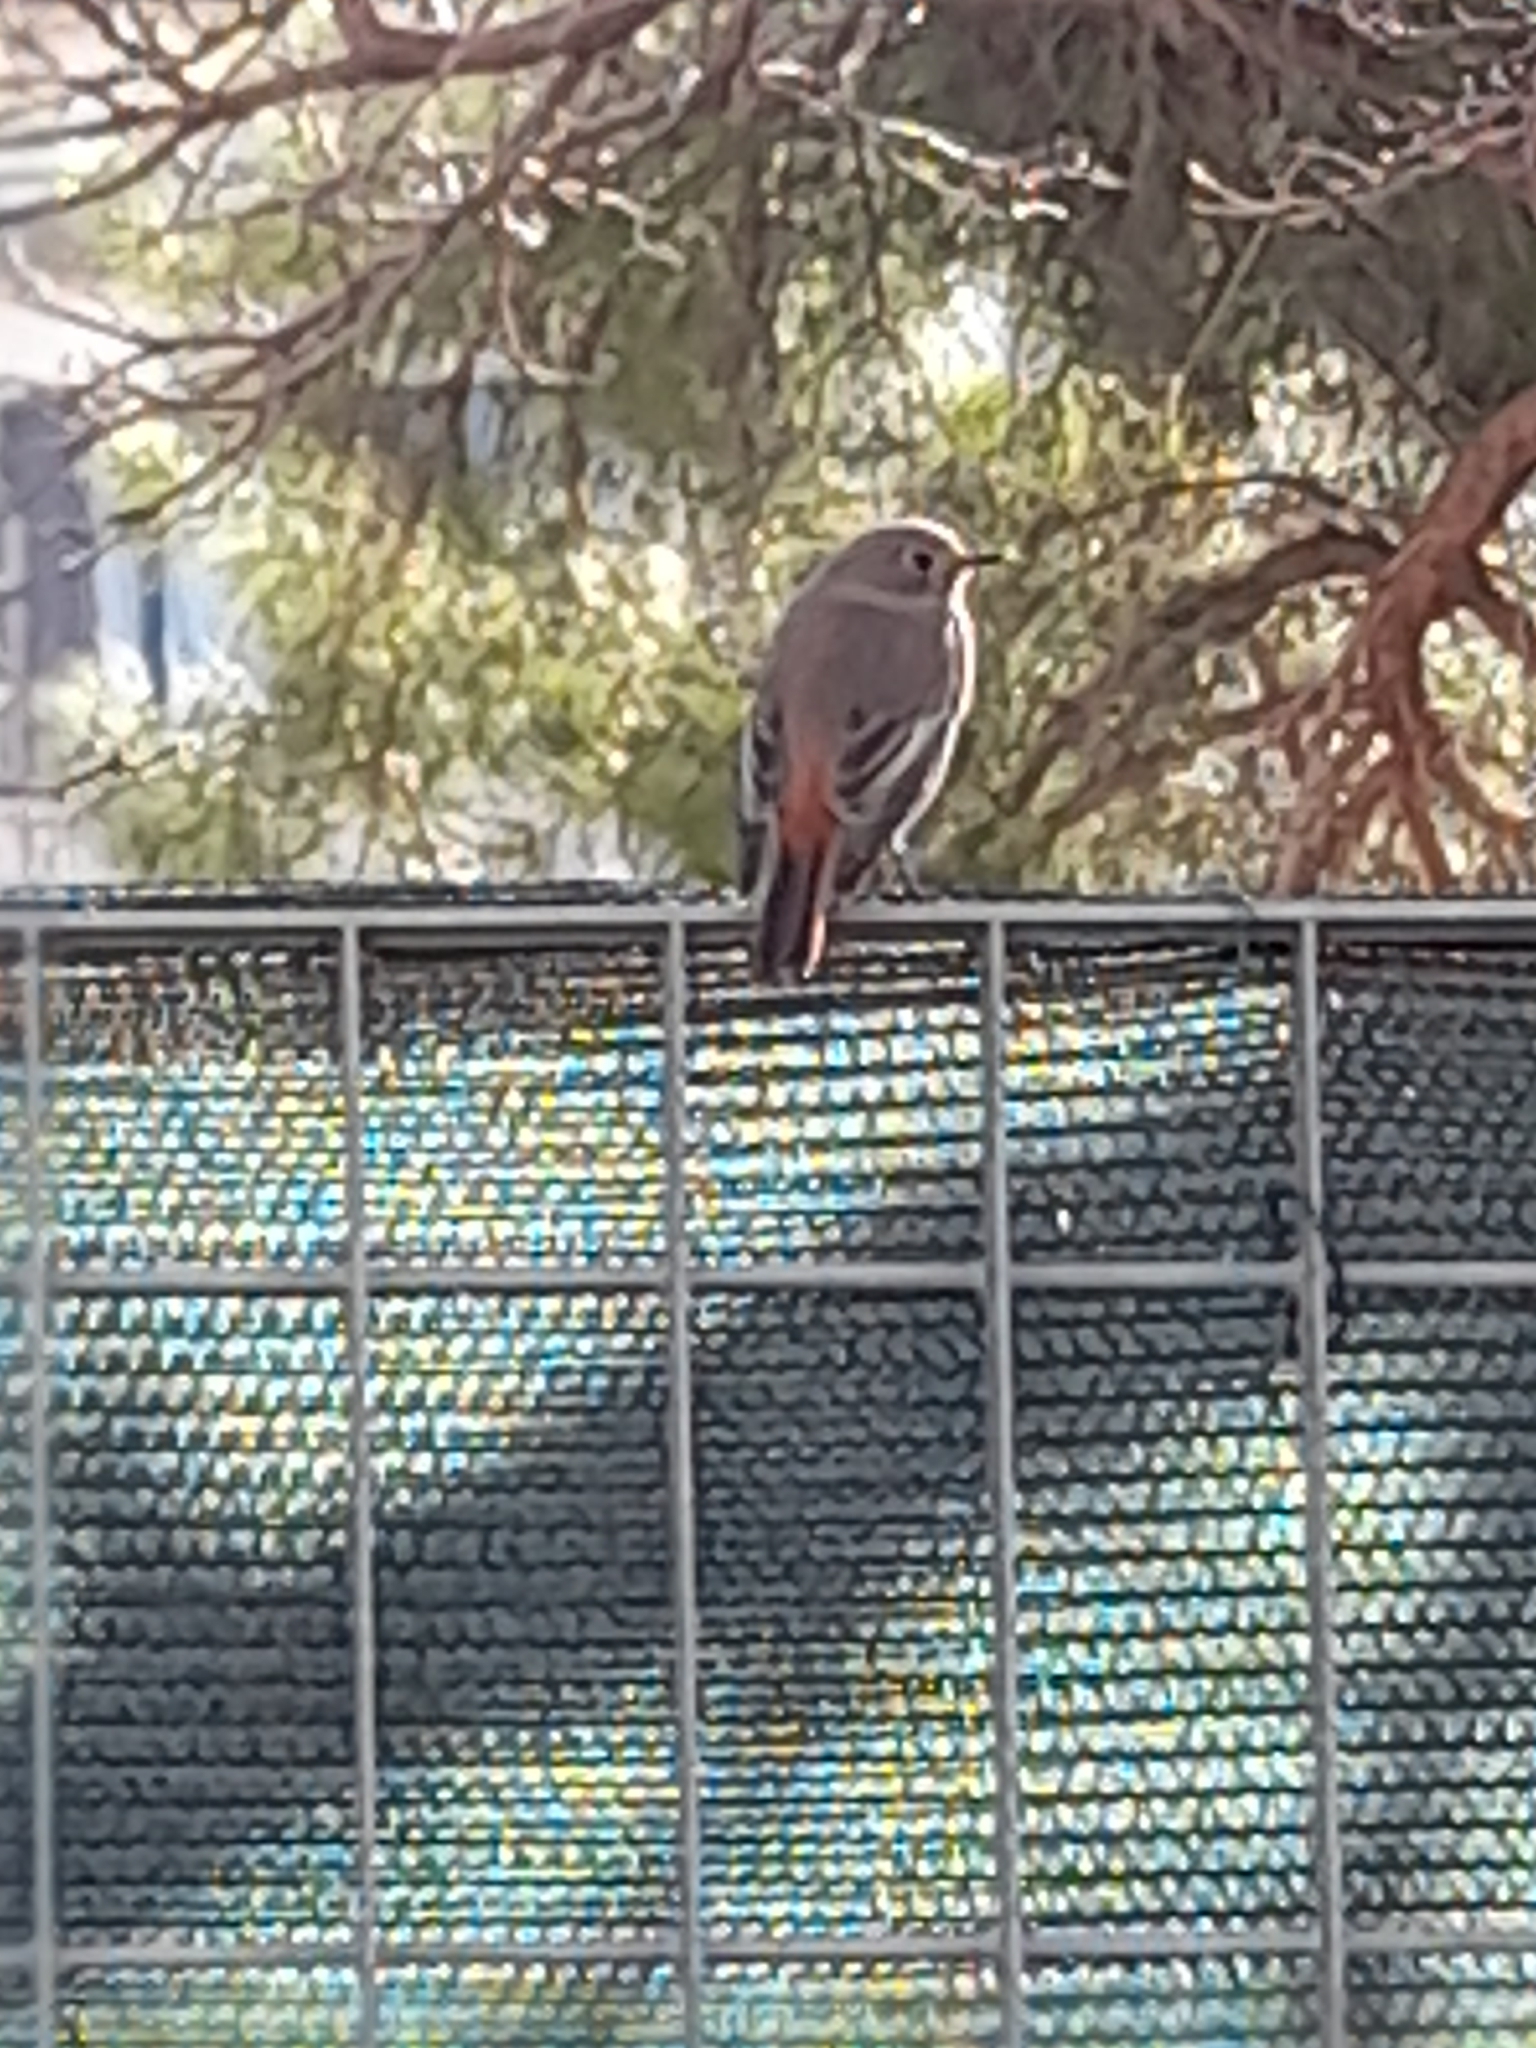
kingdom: Animalia
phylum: Chordata
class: Aves
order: Passeriformes
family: Muscicapidae
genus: Phoenicurus
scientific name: Phoenicurus ochruros
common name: Black redstart
